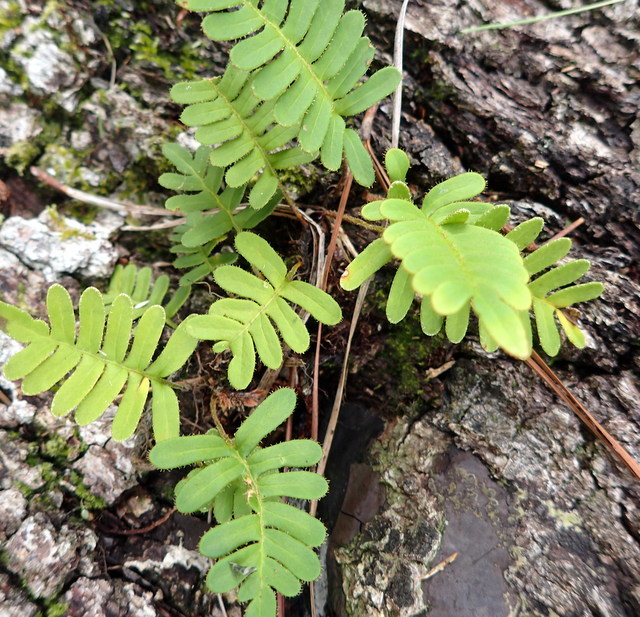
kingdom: Plantae
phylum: Tracheophyta
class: Polypodiopsida
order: Polypodiales
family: Polypodiaceae
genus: Pleopeltis
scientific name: Pleopeltis michauxiana
